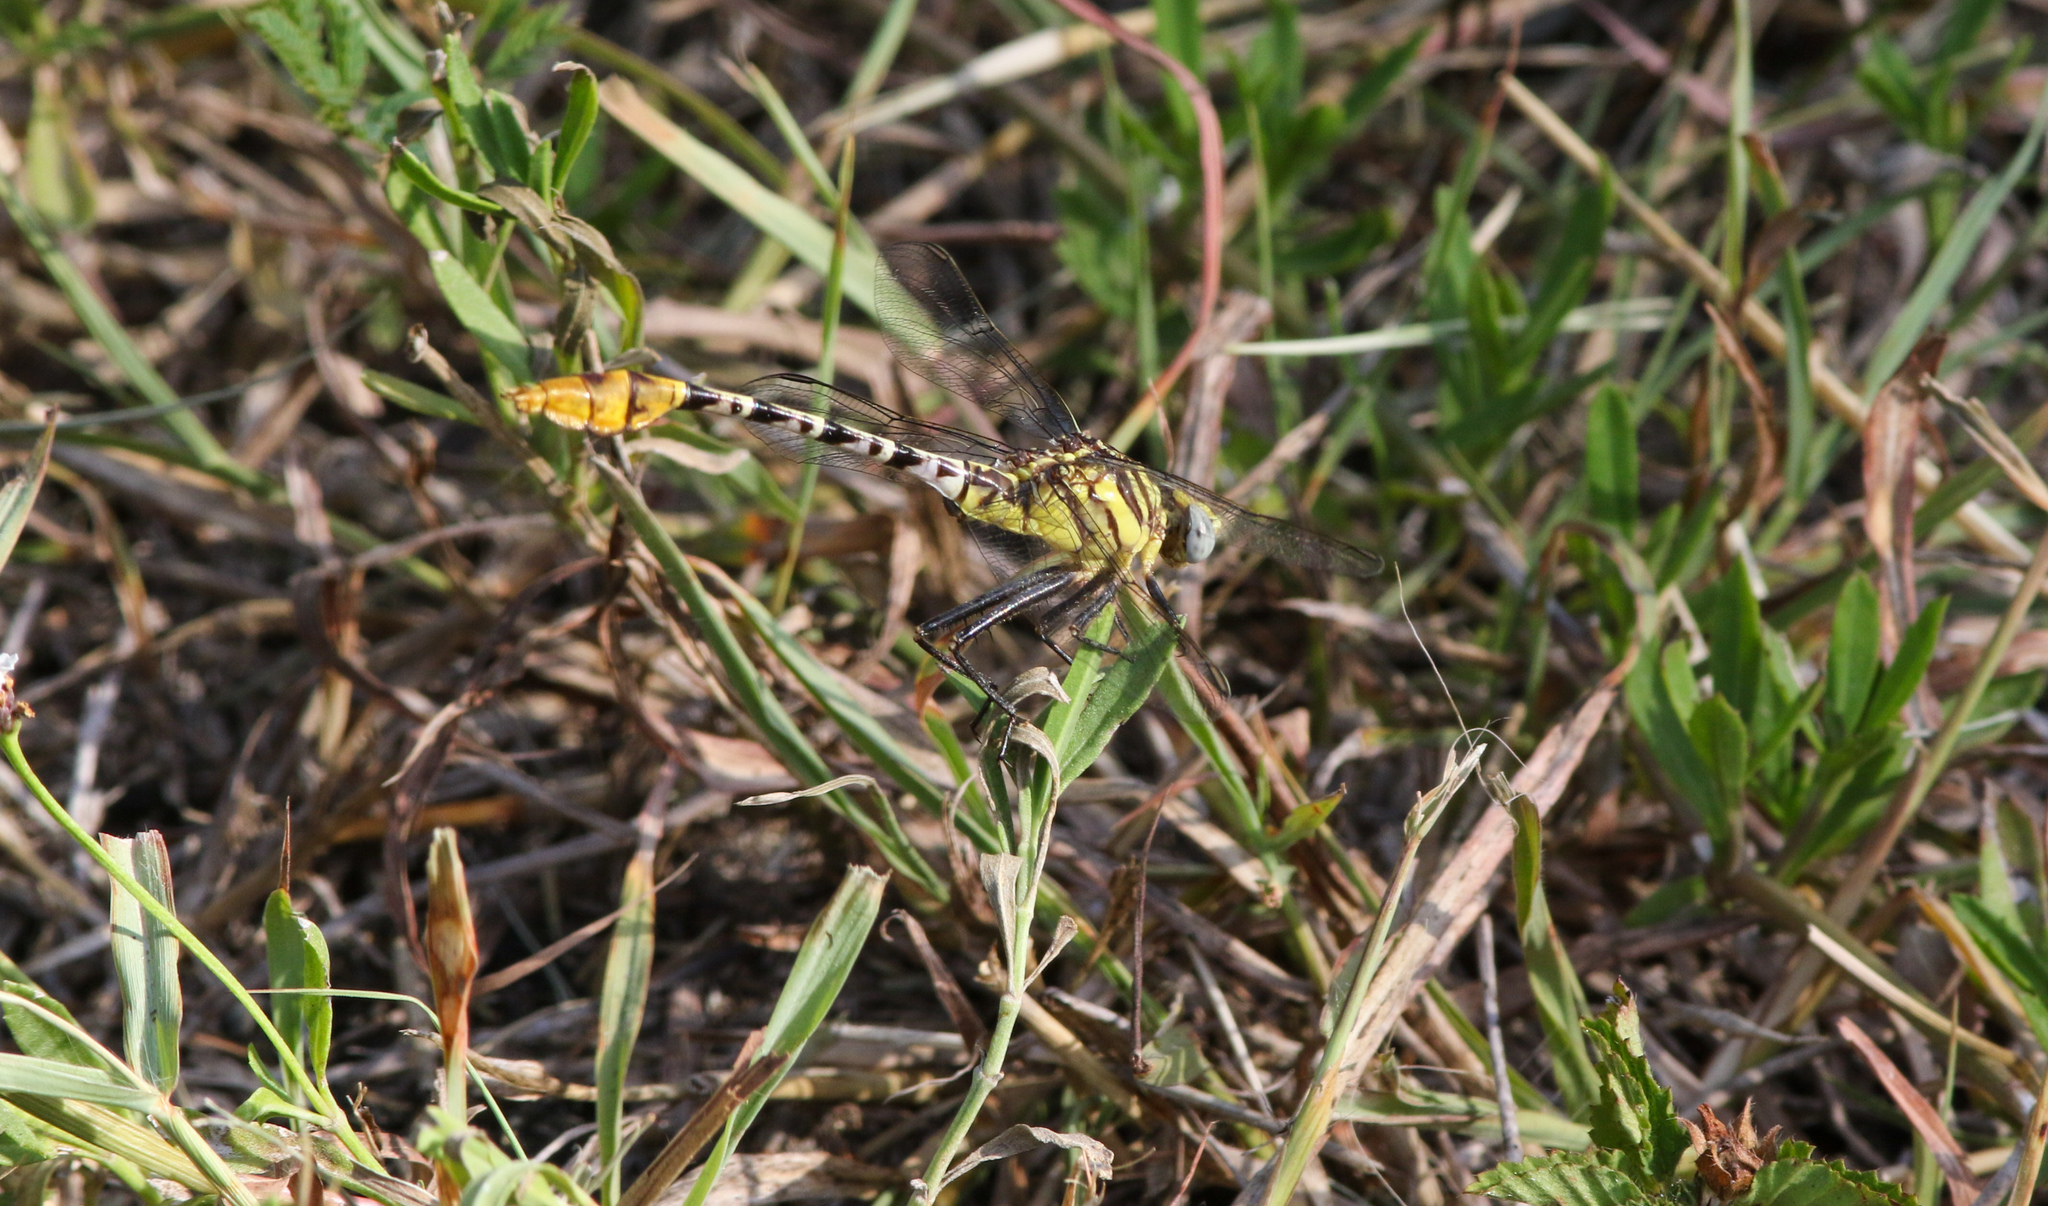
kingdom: Animalia
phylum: Arthropoda
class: Insecta
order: Odonata
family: Gomphidae
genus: Dromogomphus
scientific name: Dromogomphus spoliatus
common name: Flag-tailed spinyleg
